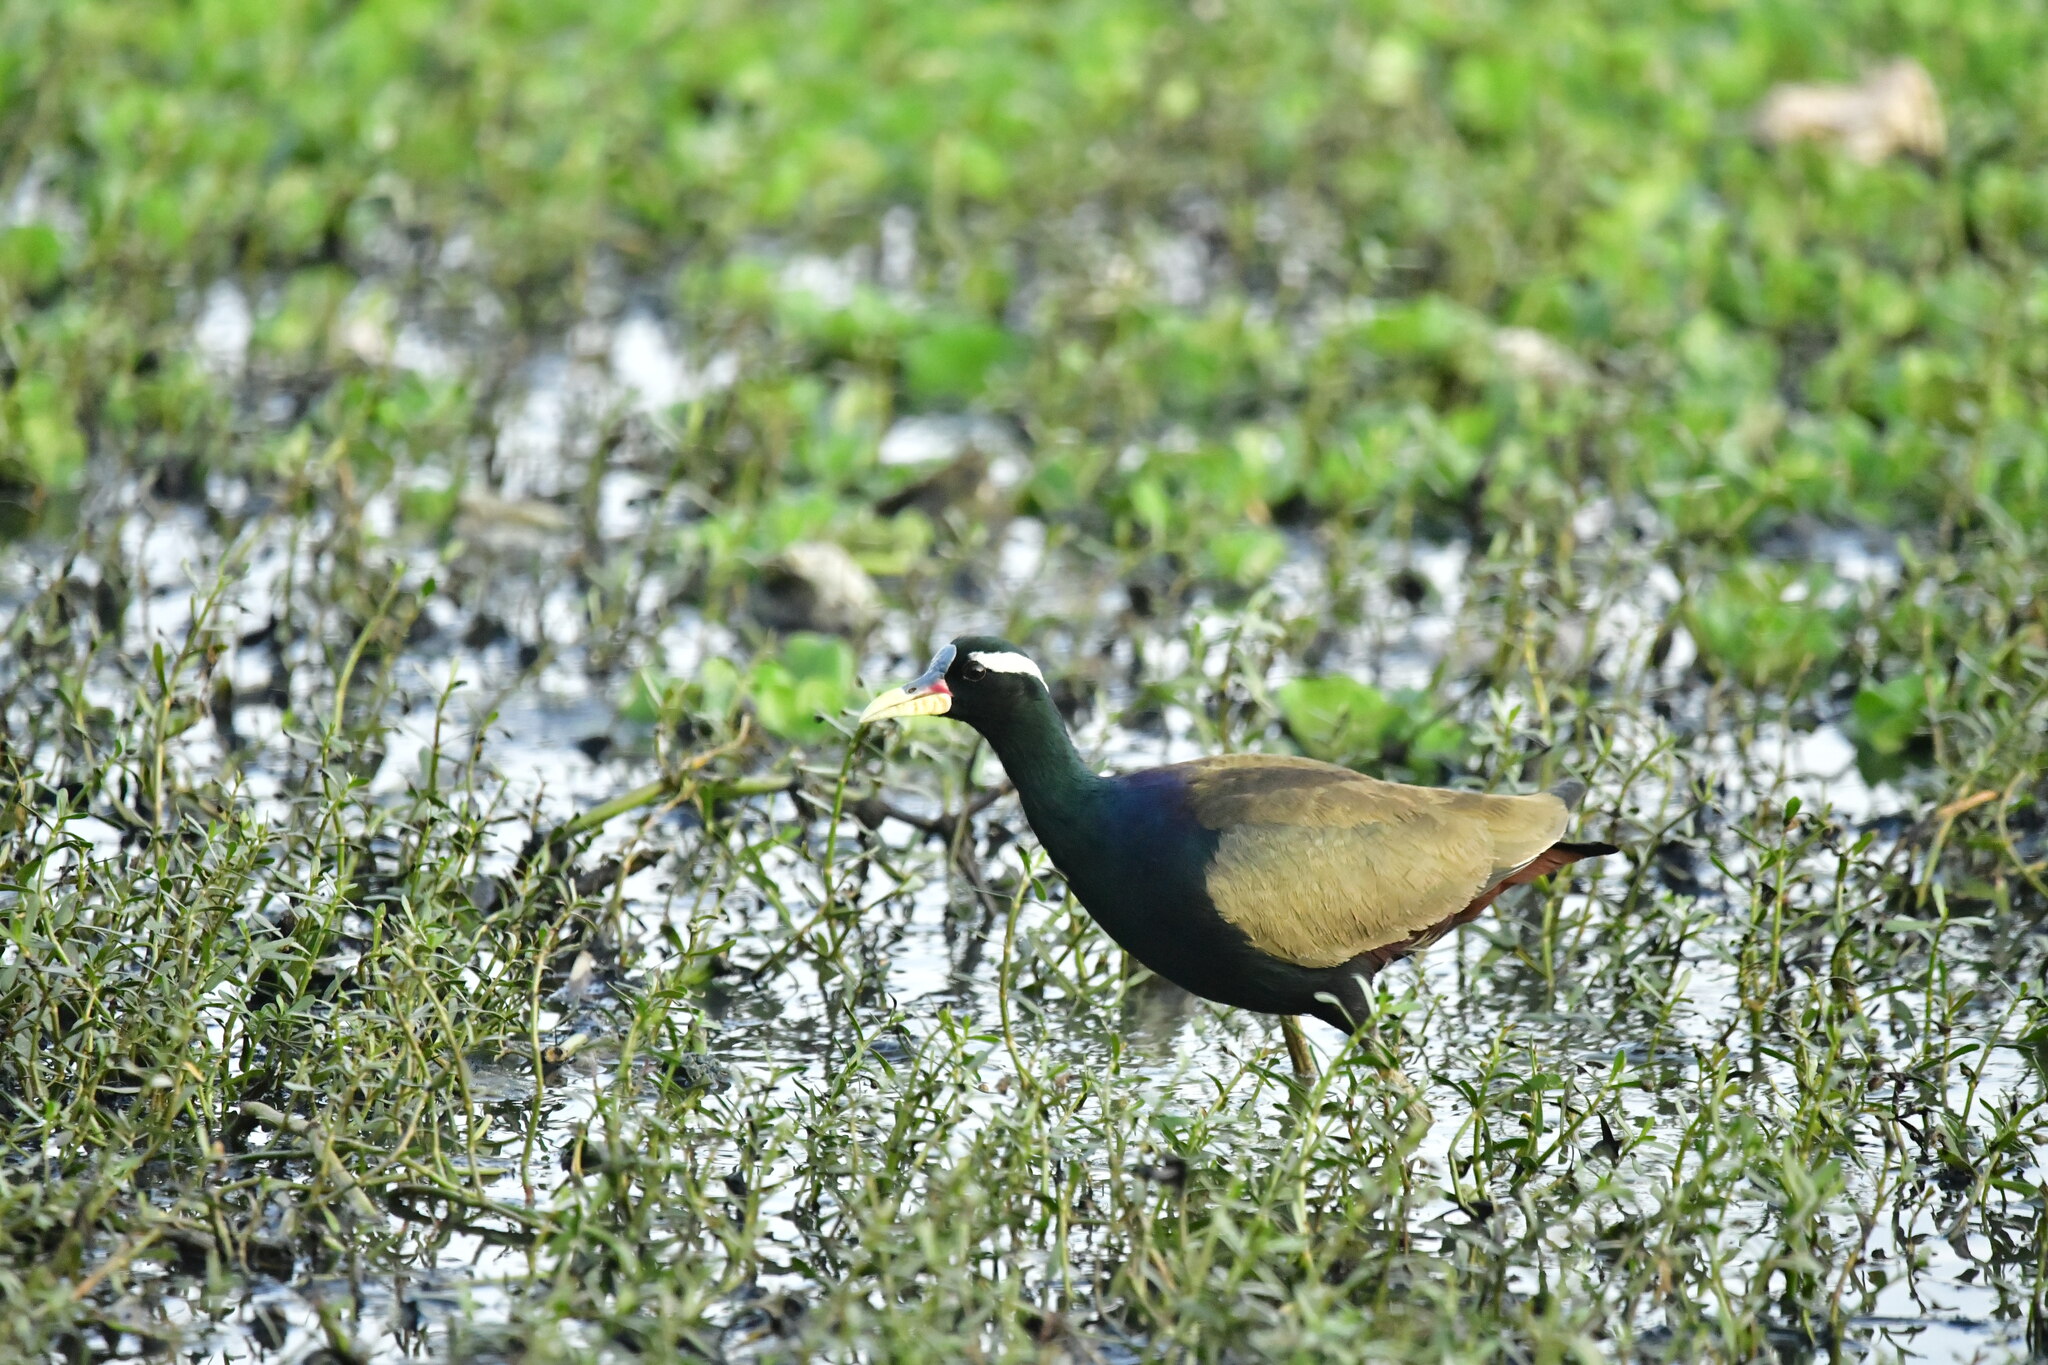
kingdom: Animalia
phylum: Chordata
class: Aves
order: Charadriiformes
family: Jacanidae
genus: Metopidius
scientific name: Metopidius indicus
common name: Bronze-winged jacana
